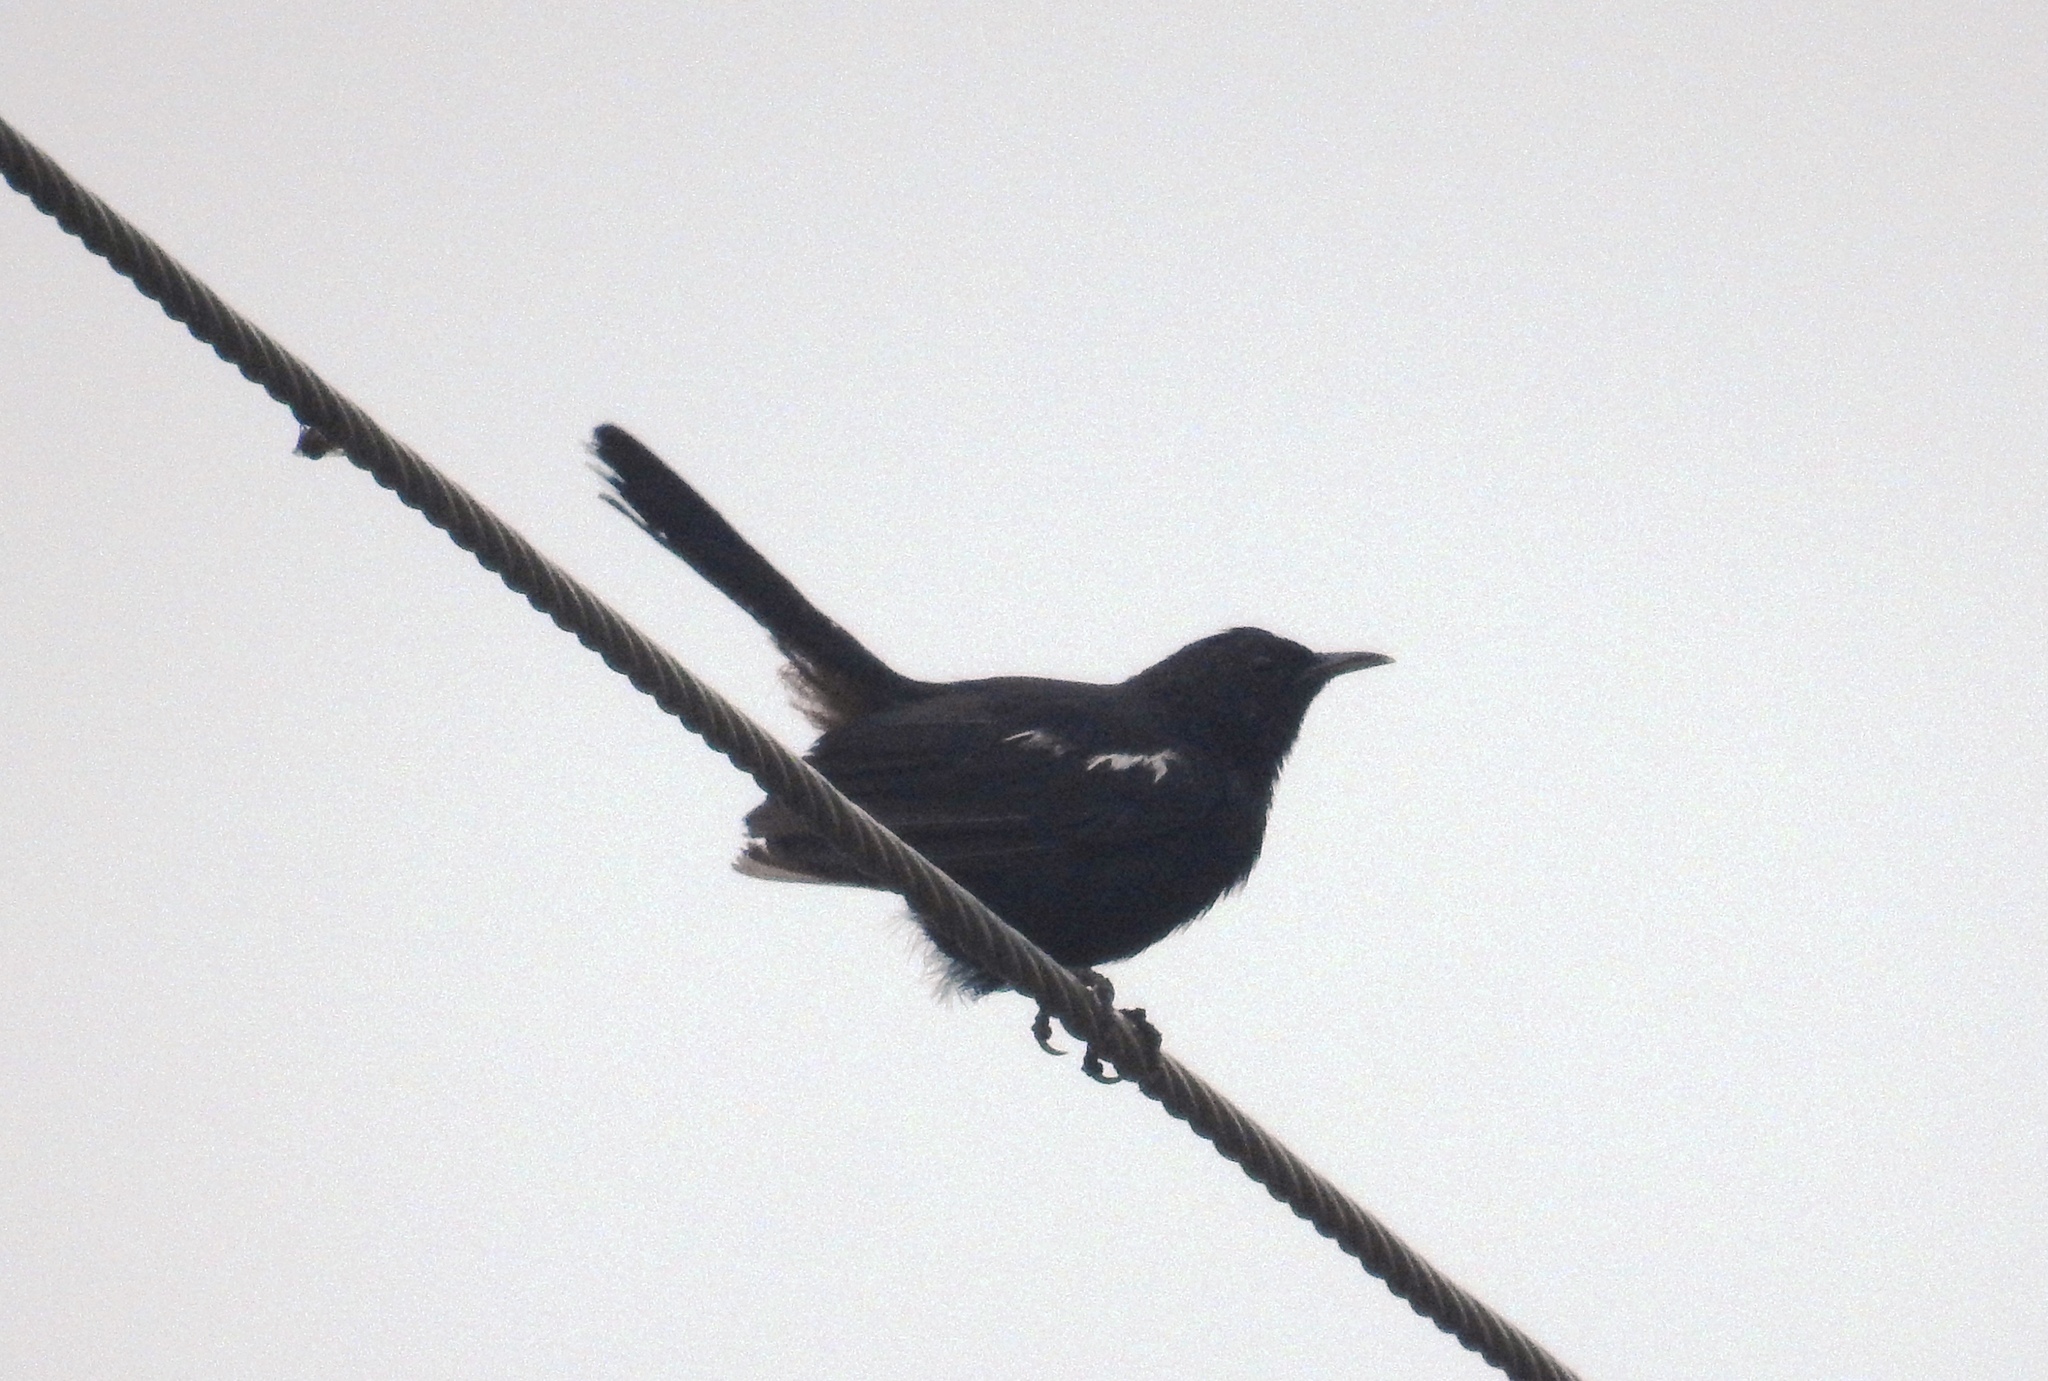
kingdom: Animalia
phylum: Chordata
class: Aves
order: Passeriformes
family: Muscicapidae
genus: Saxicoloides
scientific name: Saxicoloides fulicatus
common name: Indian robin
